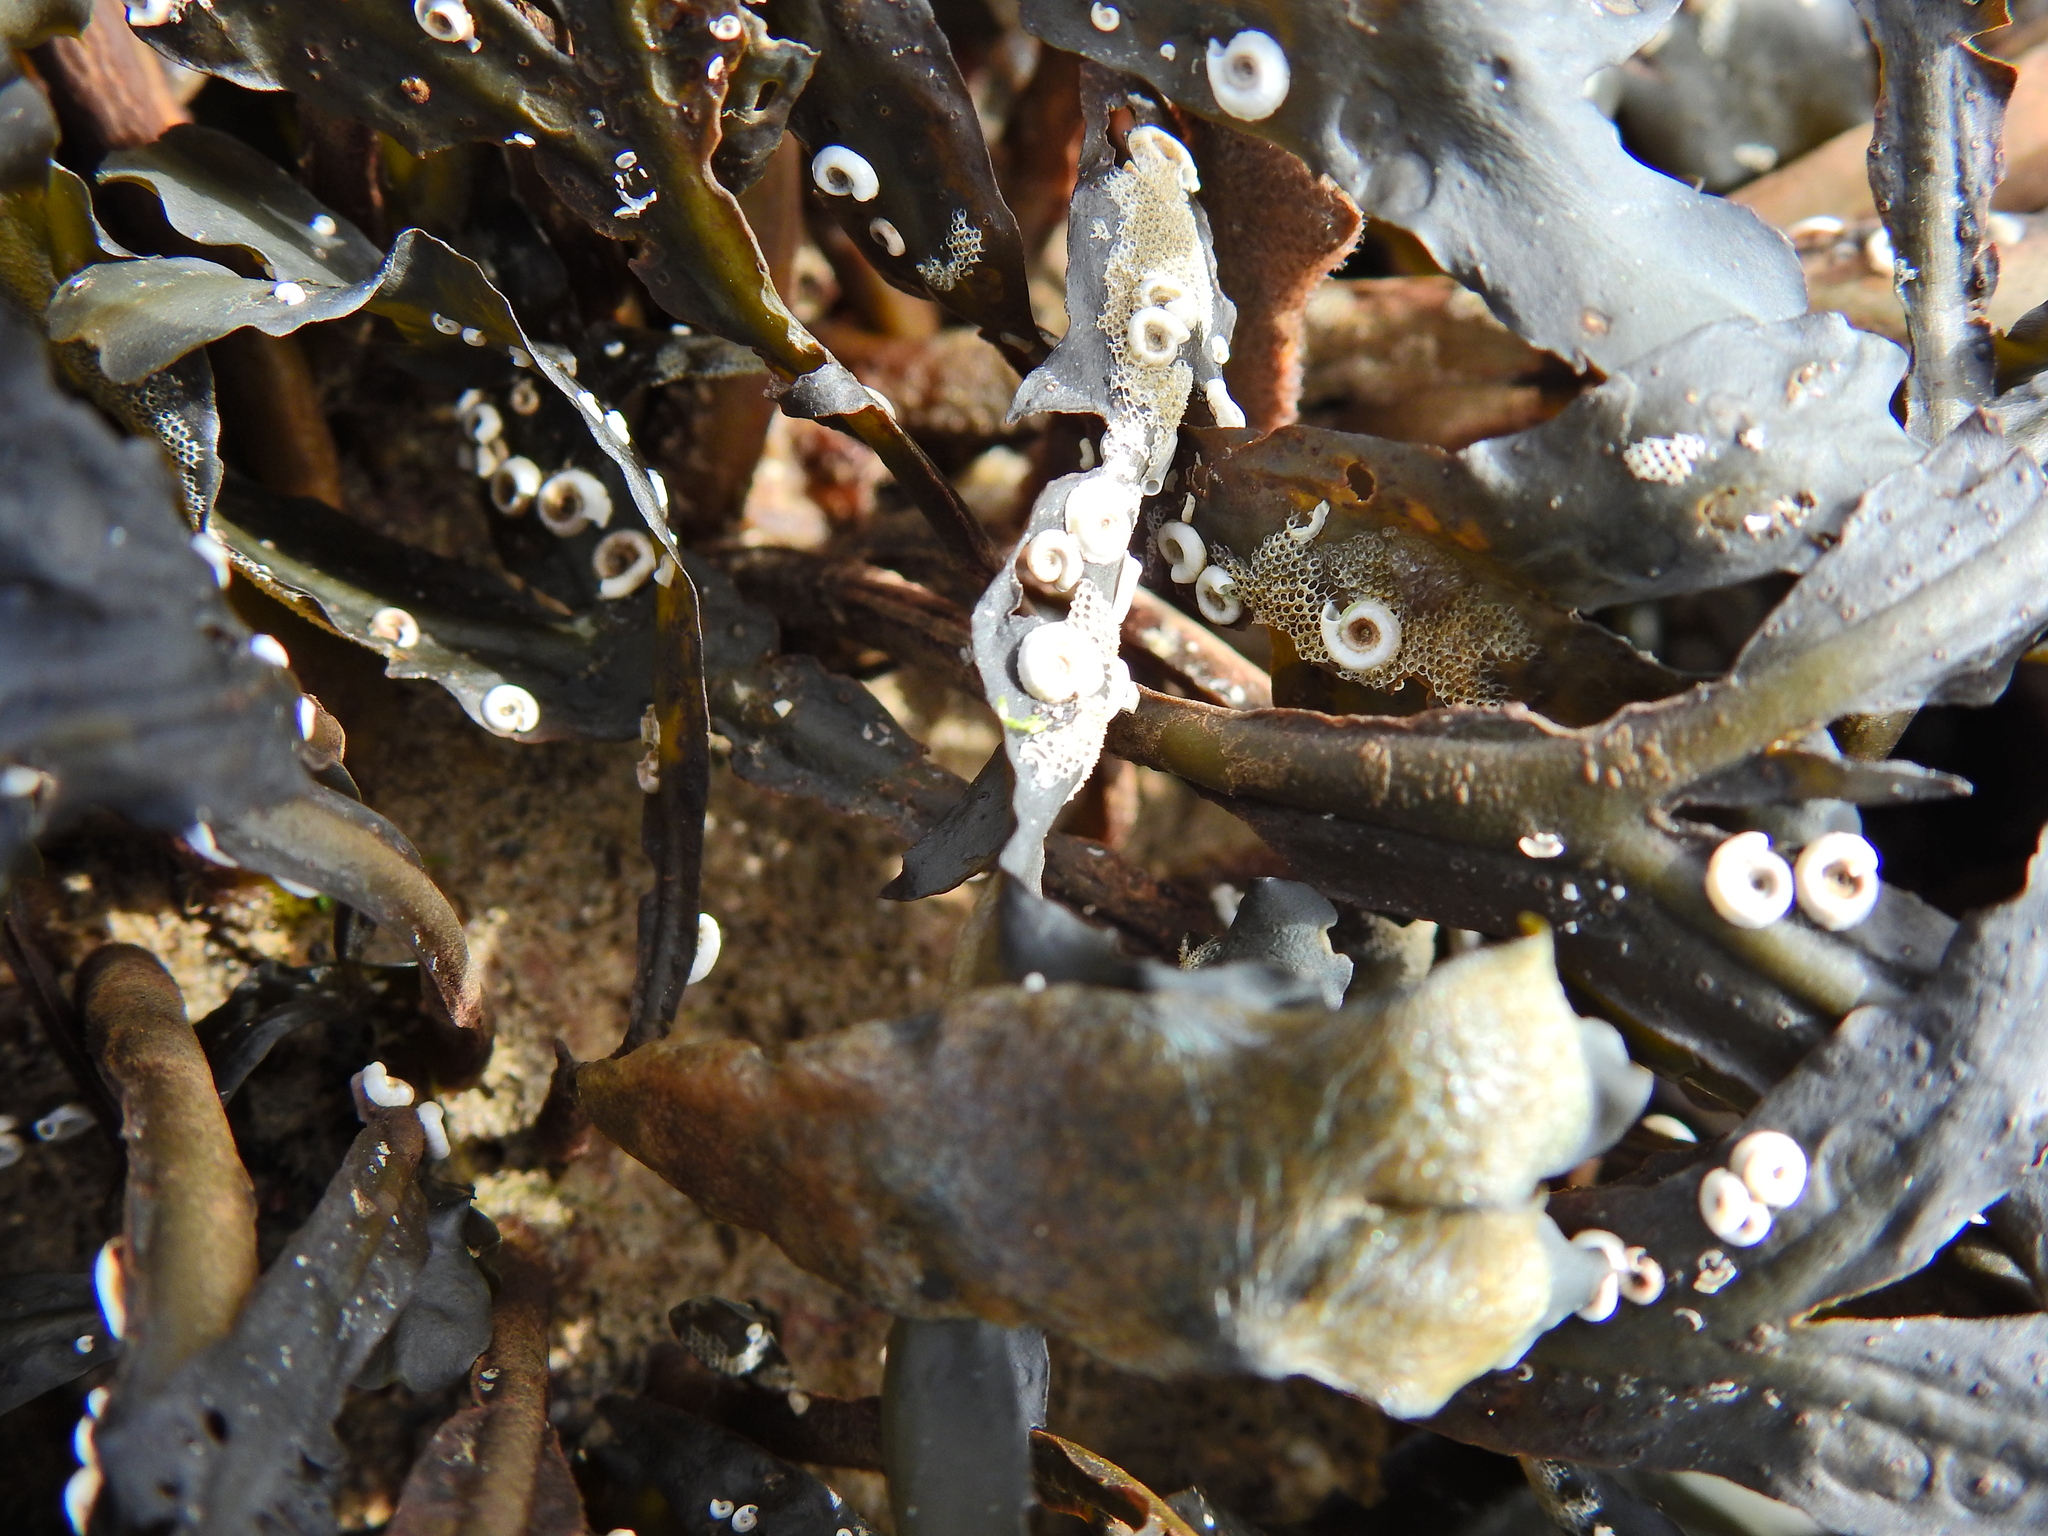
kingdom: Animalia
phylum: Annelida
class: Polychaeta
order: Sabellida
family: Serpulidae
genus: Spirorbis
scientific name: Spirorbis spirorbis
